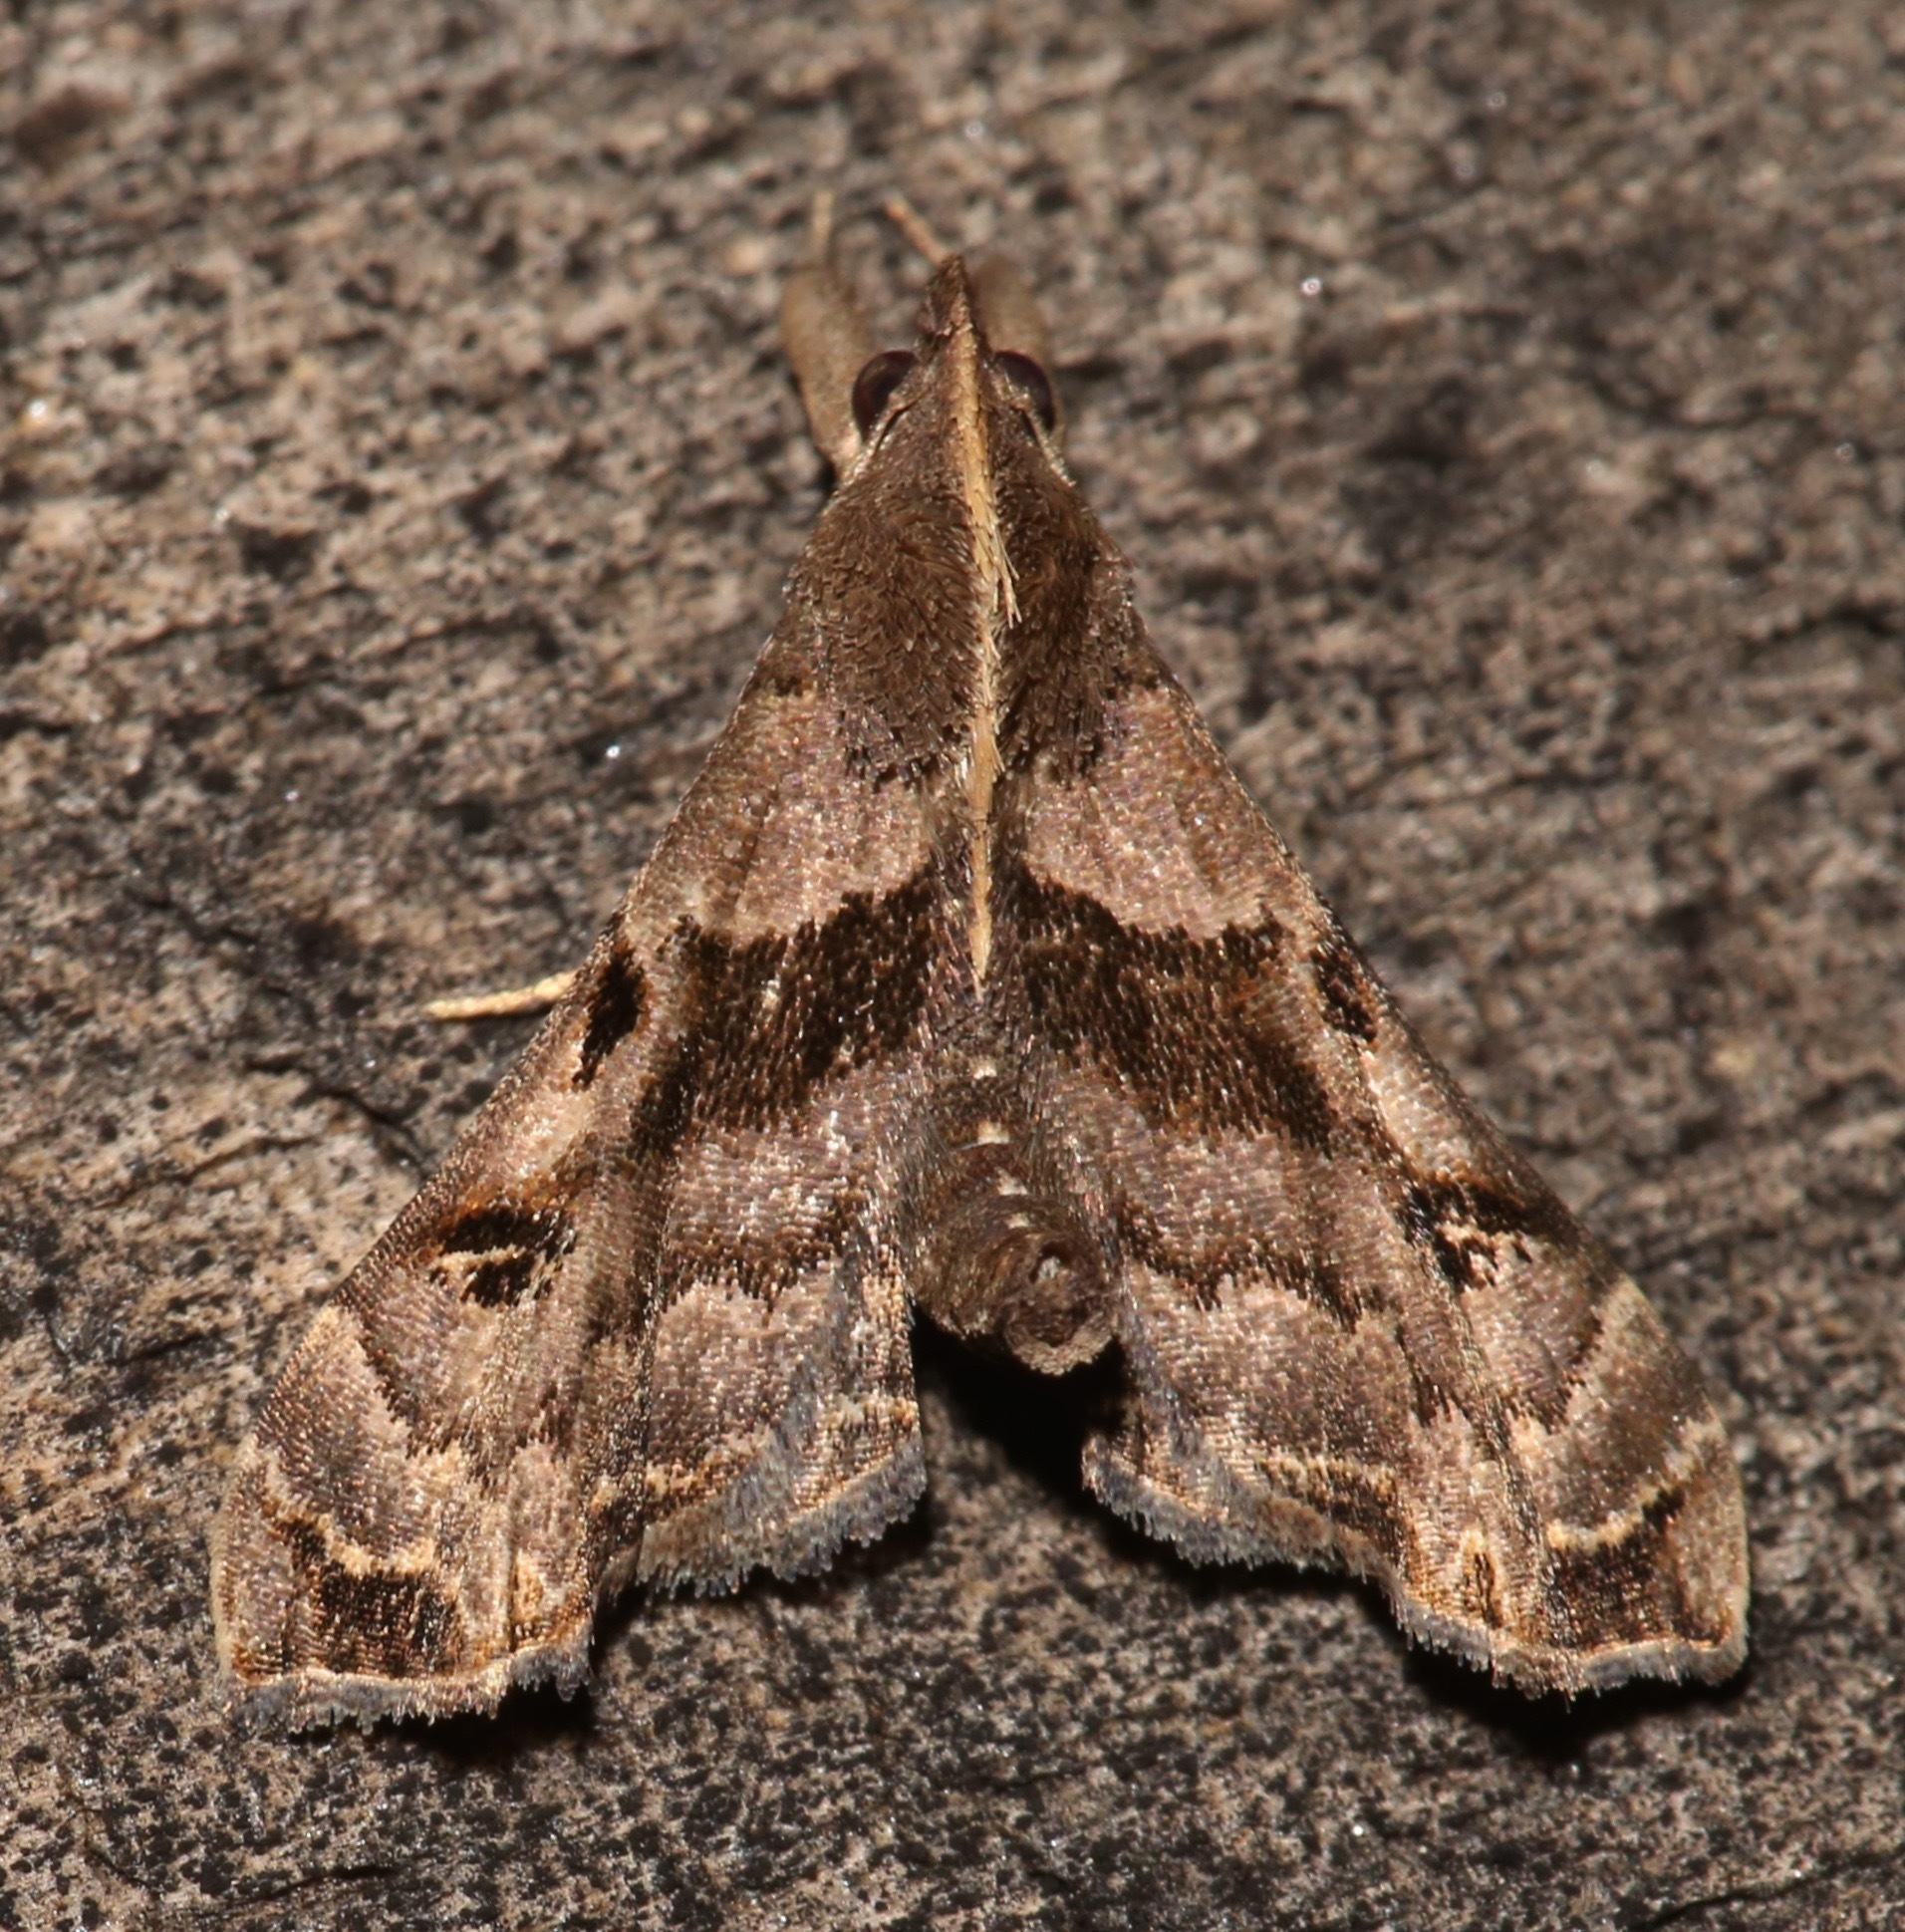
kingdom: Animalia
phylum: Arthropoda
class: Insecta
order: Lepidoptera
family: Erebidae
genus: Palthis
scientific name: Palthis asopialis
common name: Faint-spotted palthis moth
